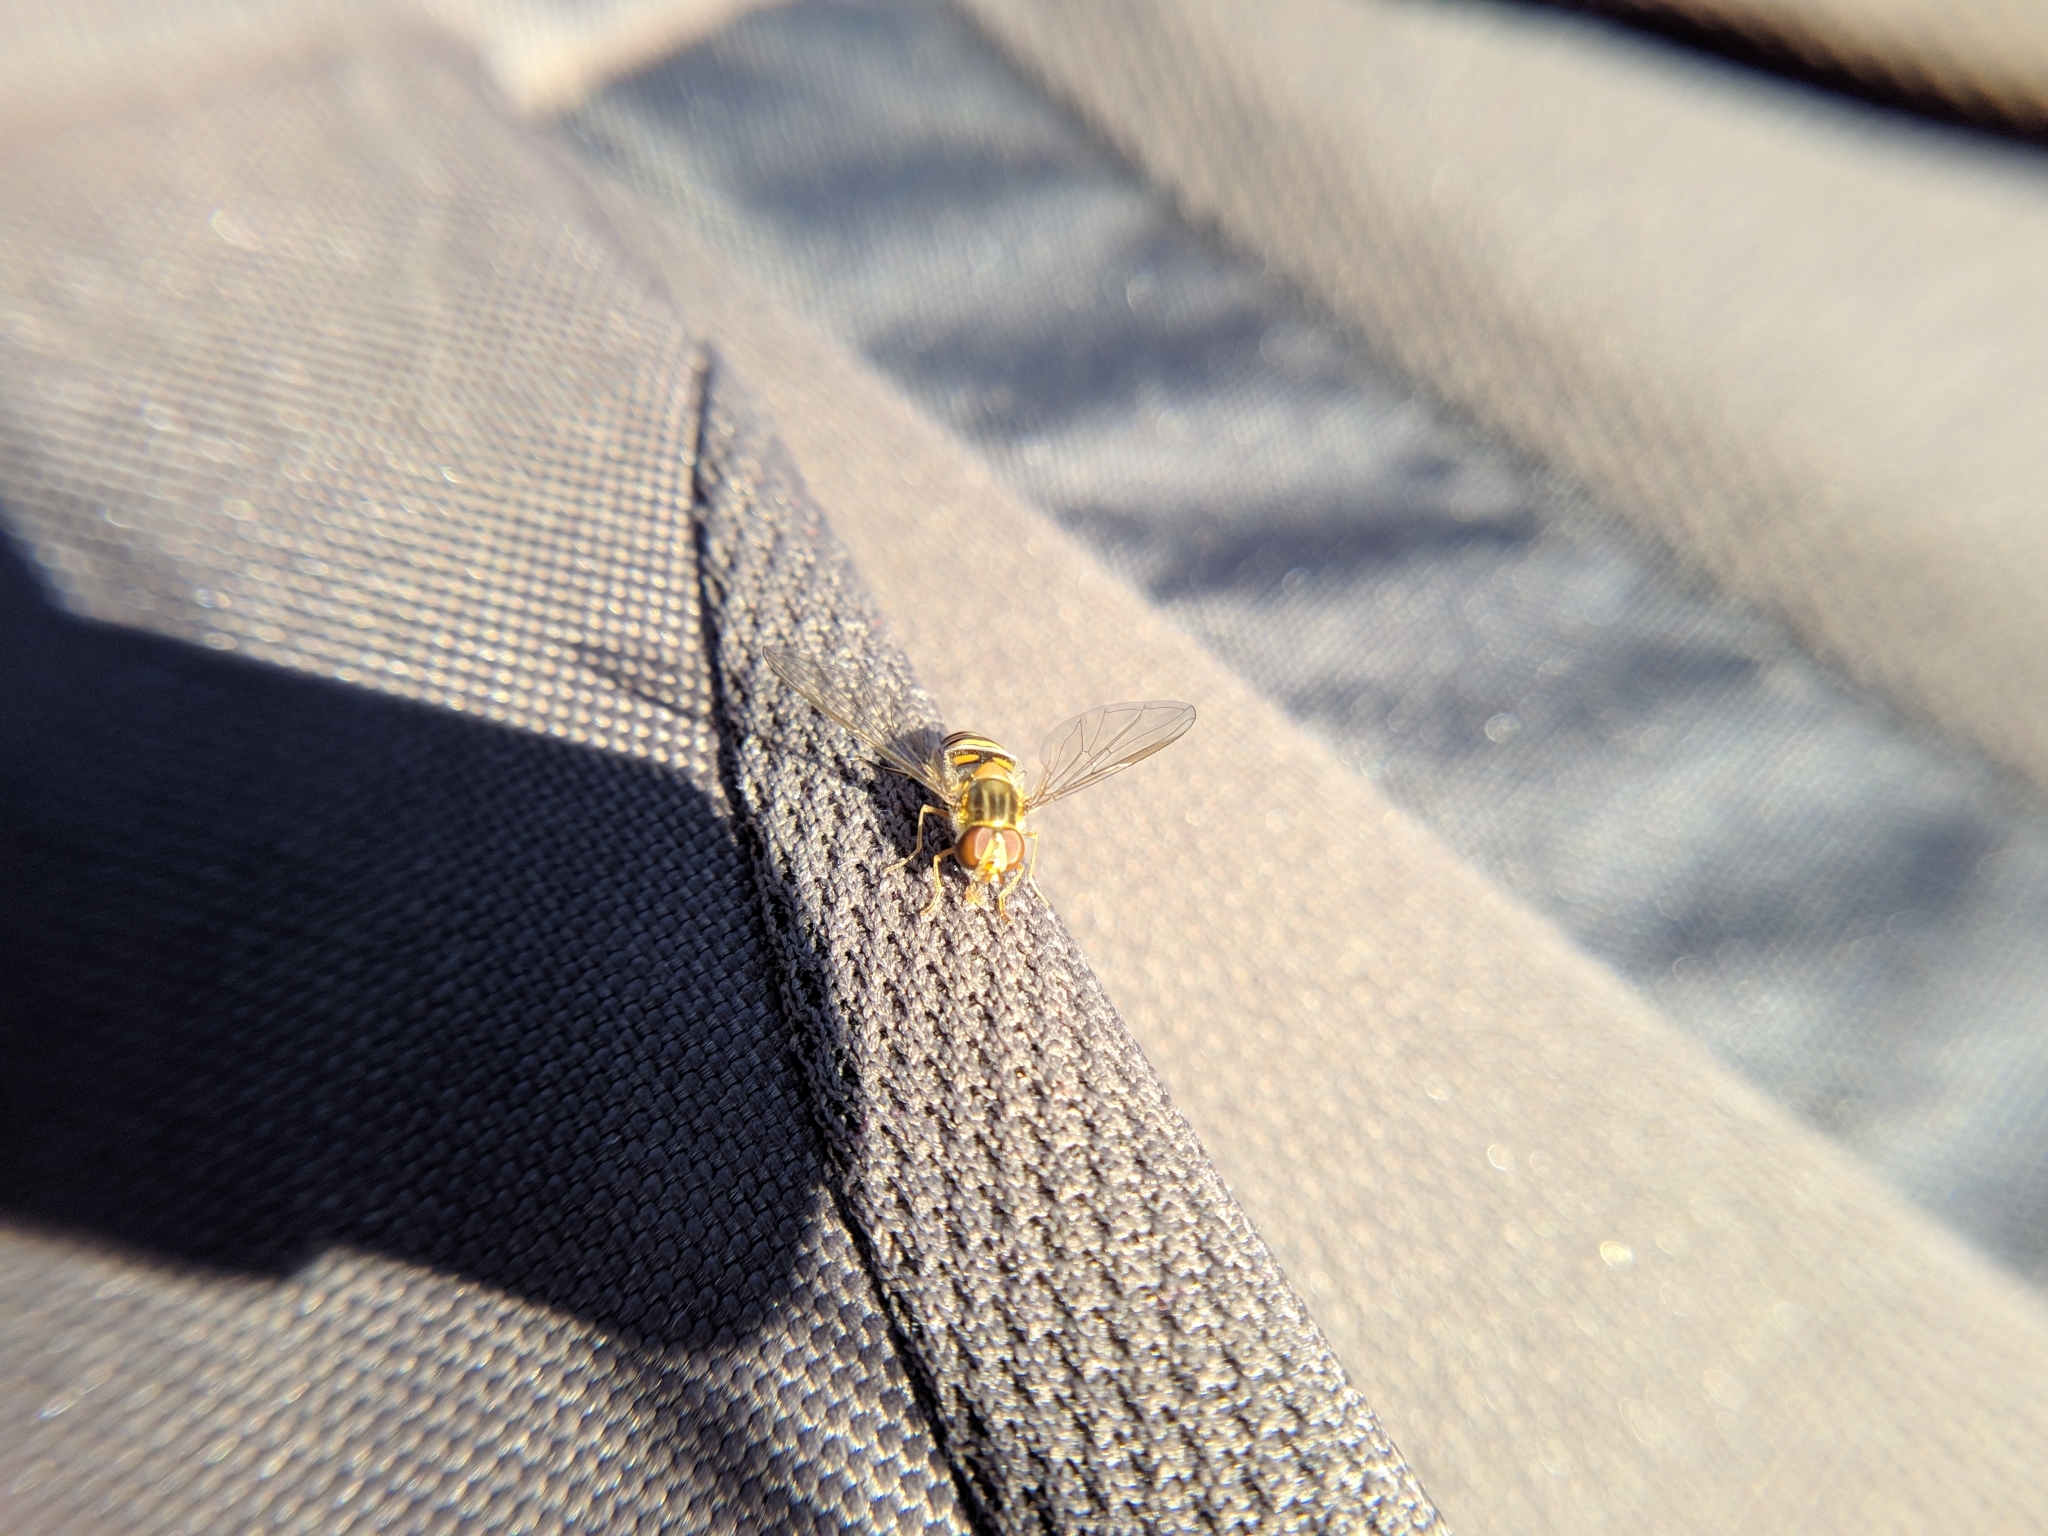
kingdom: Animalia
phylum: Arthropoda
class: Insecta
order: Diptera
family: Syrphidae
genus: Episyrphus
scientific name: Episyrphus balteatus
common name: Marmalade hoverfly
